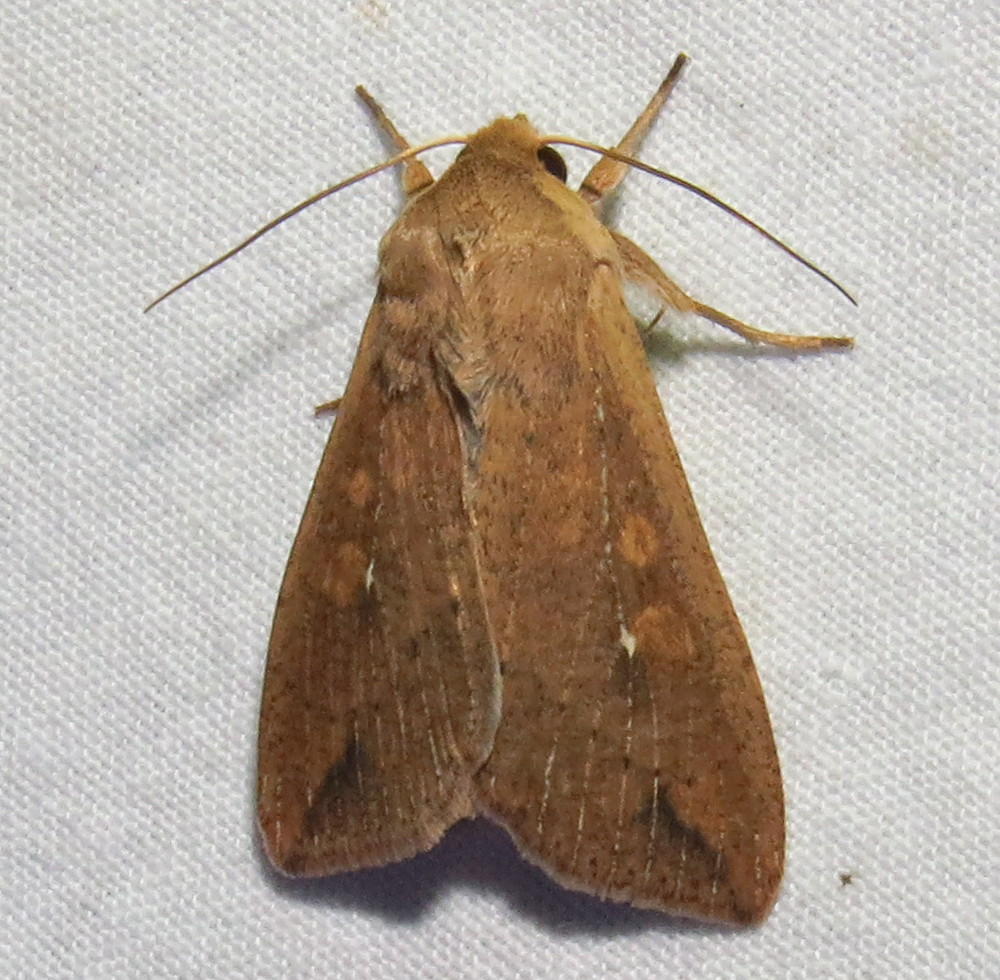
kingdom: Animalia
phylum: Arthropoda
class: Insecta
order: Lepidoptera
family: Noctuidae
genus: Mythimna
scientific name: Mythimna unipuncta
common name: White-speck
